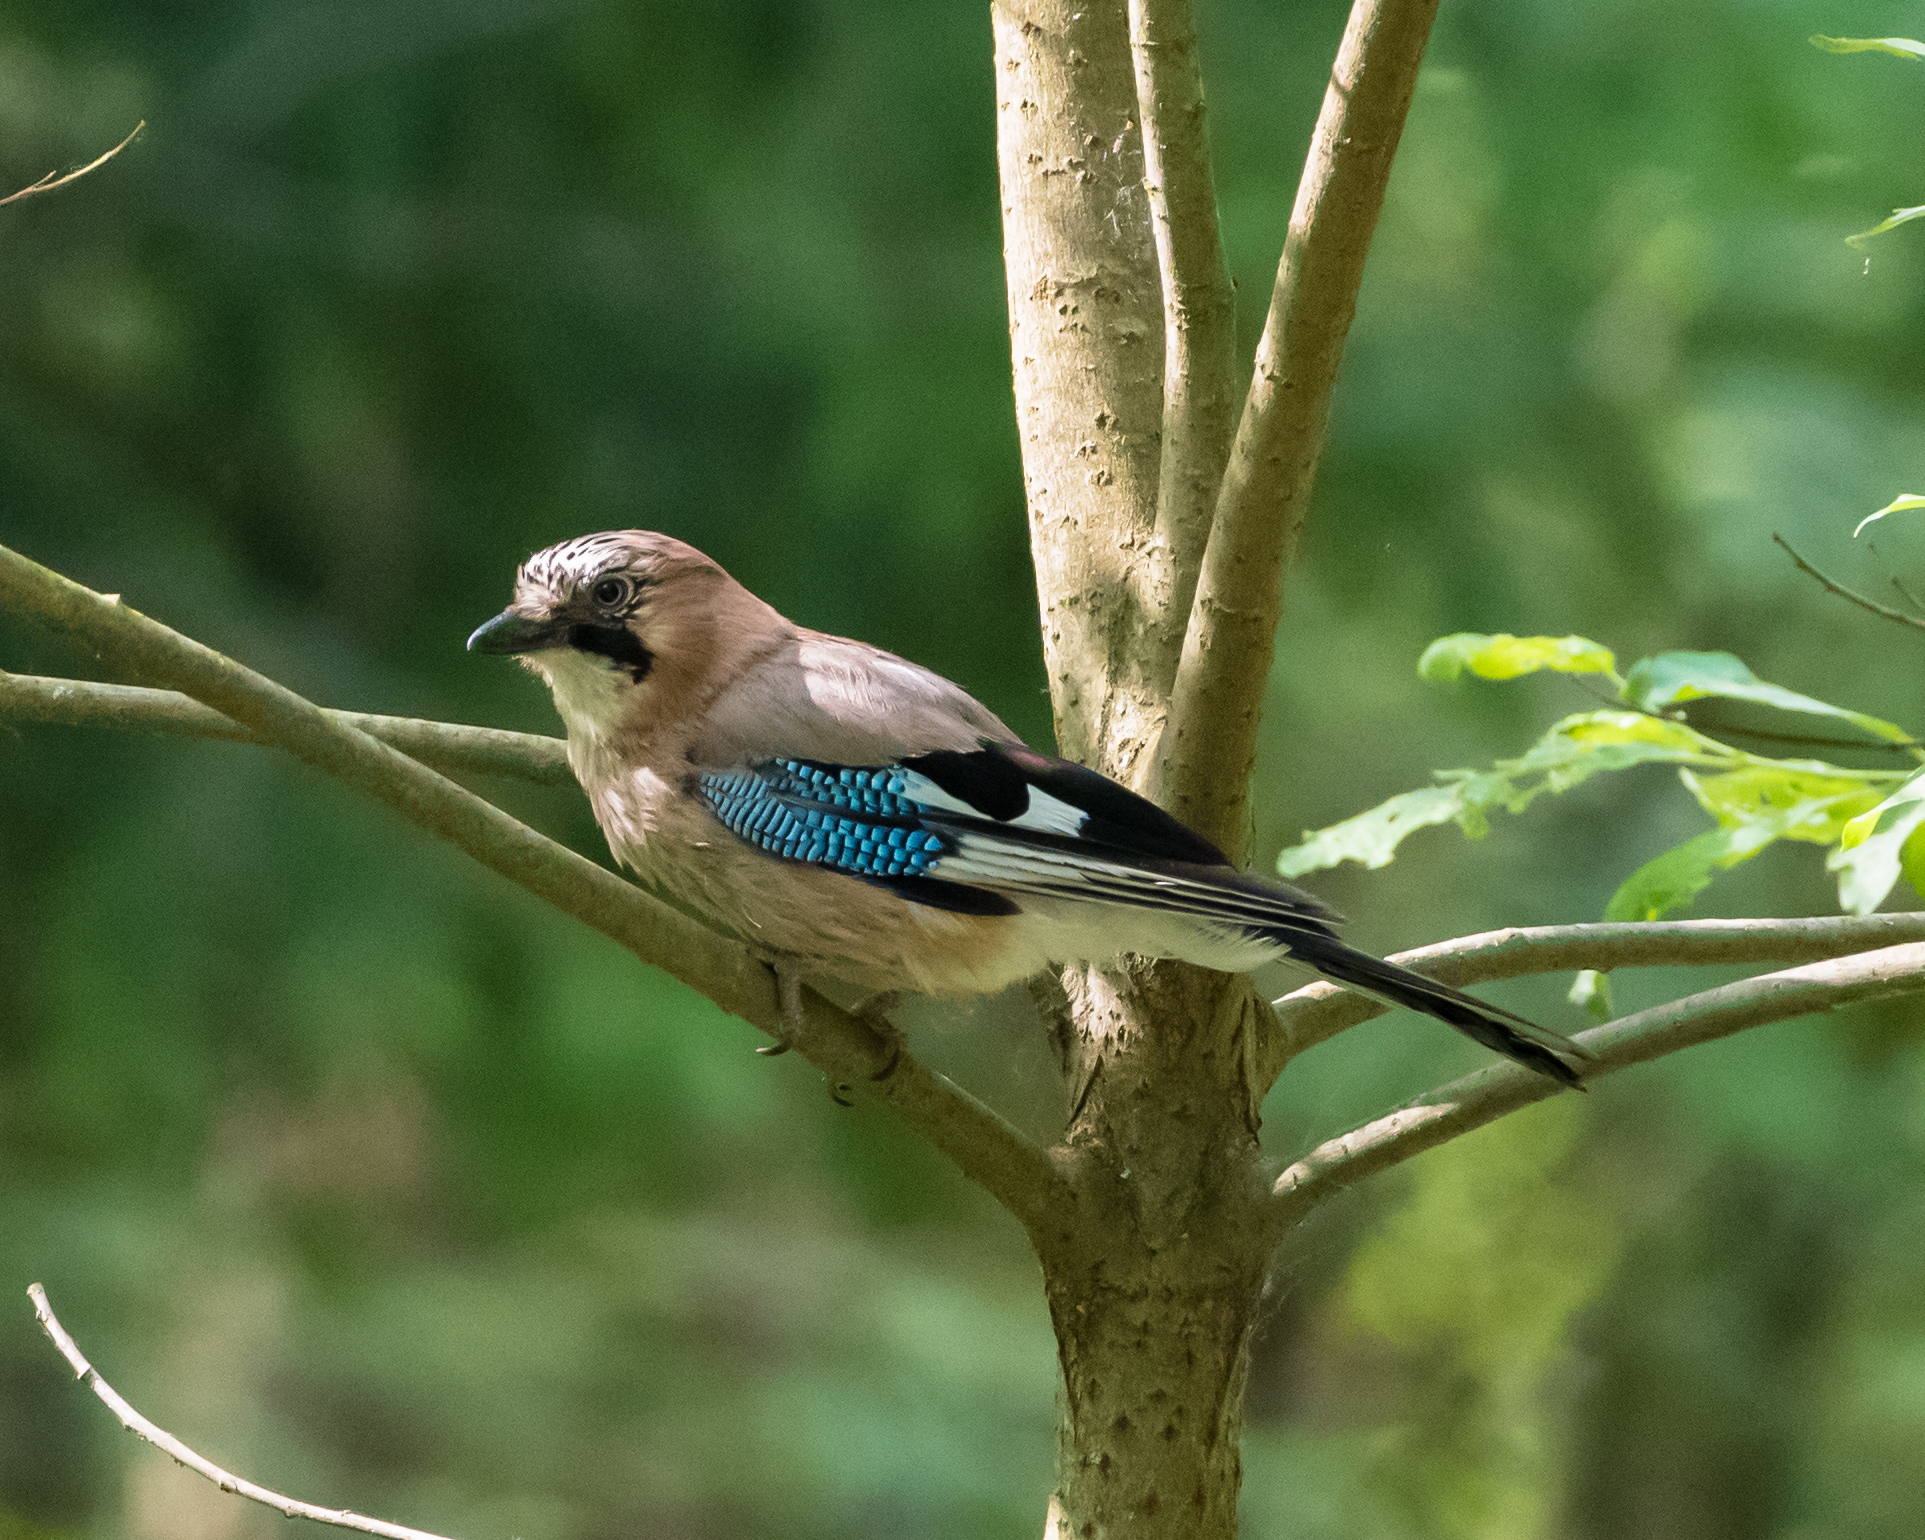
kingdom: Animalia
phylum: Chordata
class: Aves
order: Passeriformes
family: Corvidae
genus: Garrulus
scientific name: Garrulus glandarius
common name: Eurasian jay
